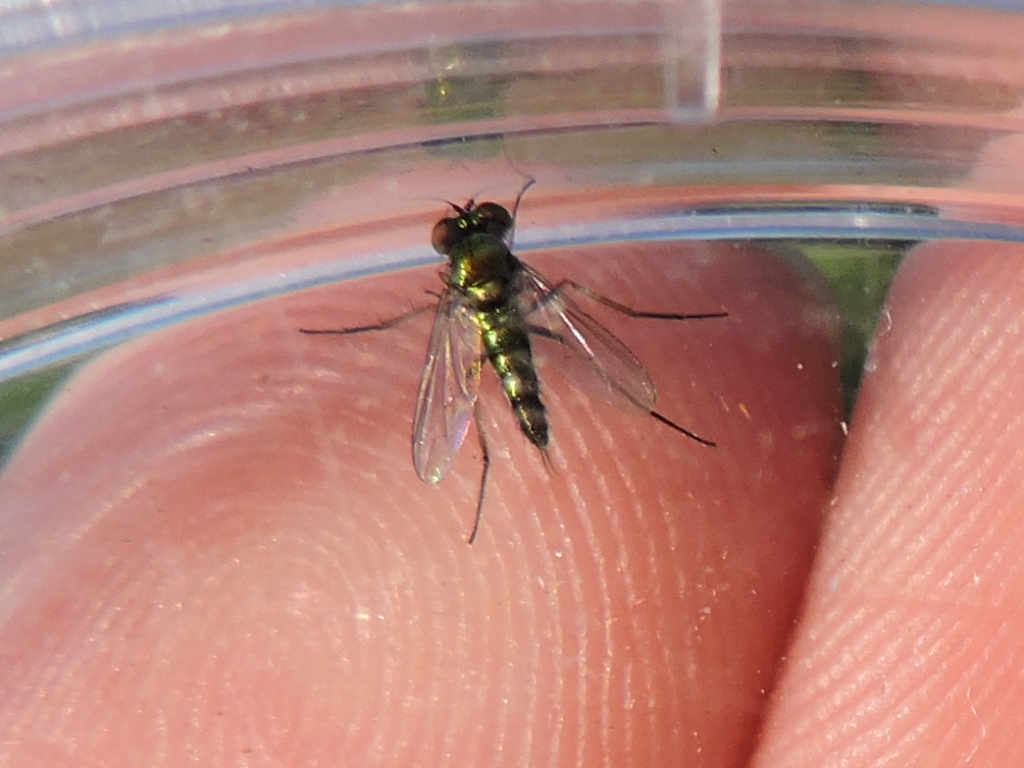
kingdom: Animalia
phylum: Arthropoda
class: Insecta
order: Diptera
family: Dolichopodidae
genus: Condylostylus
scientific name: Condylostylus caudatus
